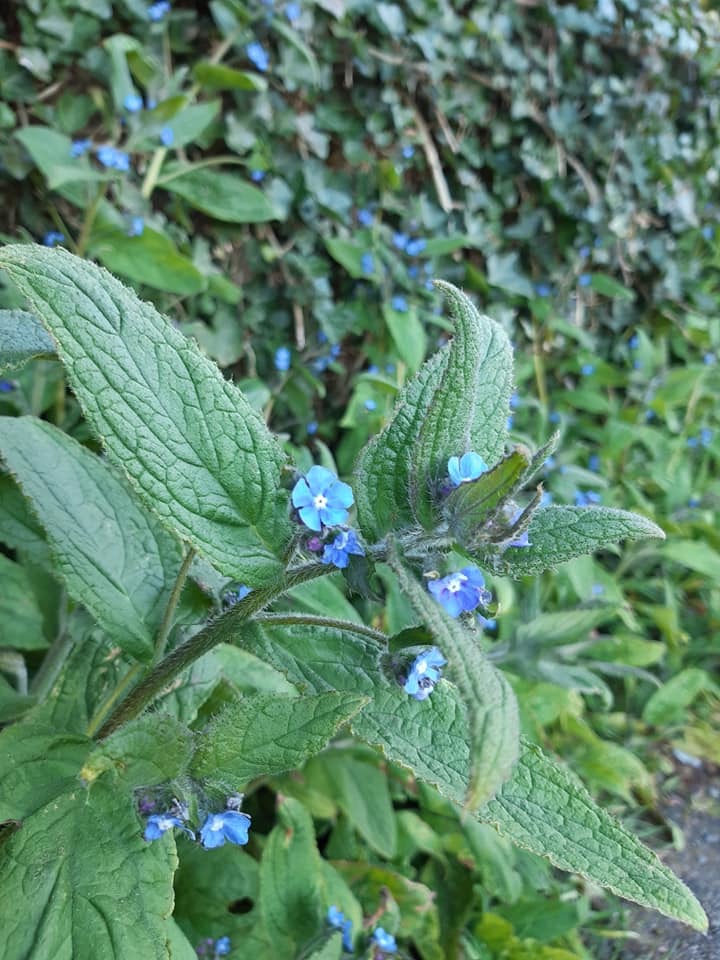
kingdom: Plantae
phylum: Tracheophyta
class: Magnoliopsida
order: Boraginales
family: Boraginaceae
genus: Pentaglottis
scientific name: Pentaglottis sempervirens
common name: Green alkanet
